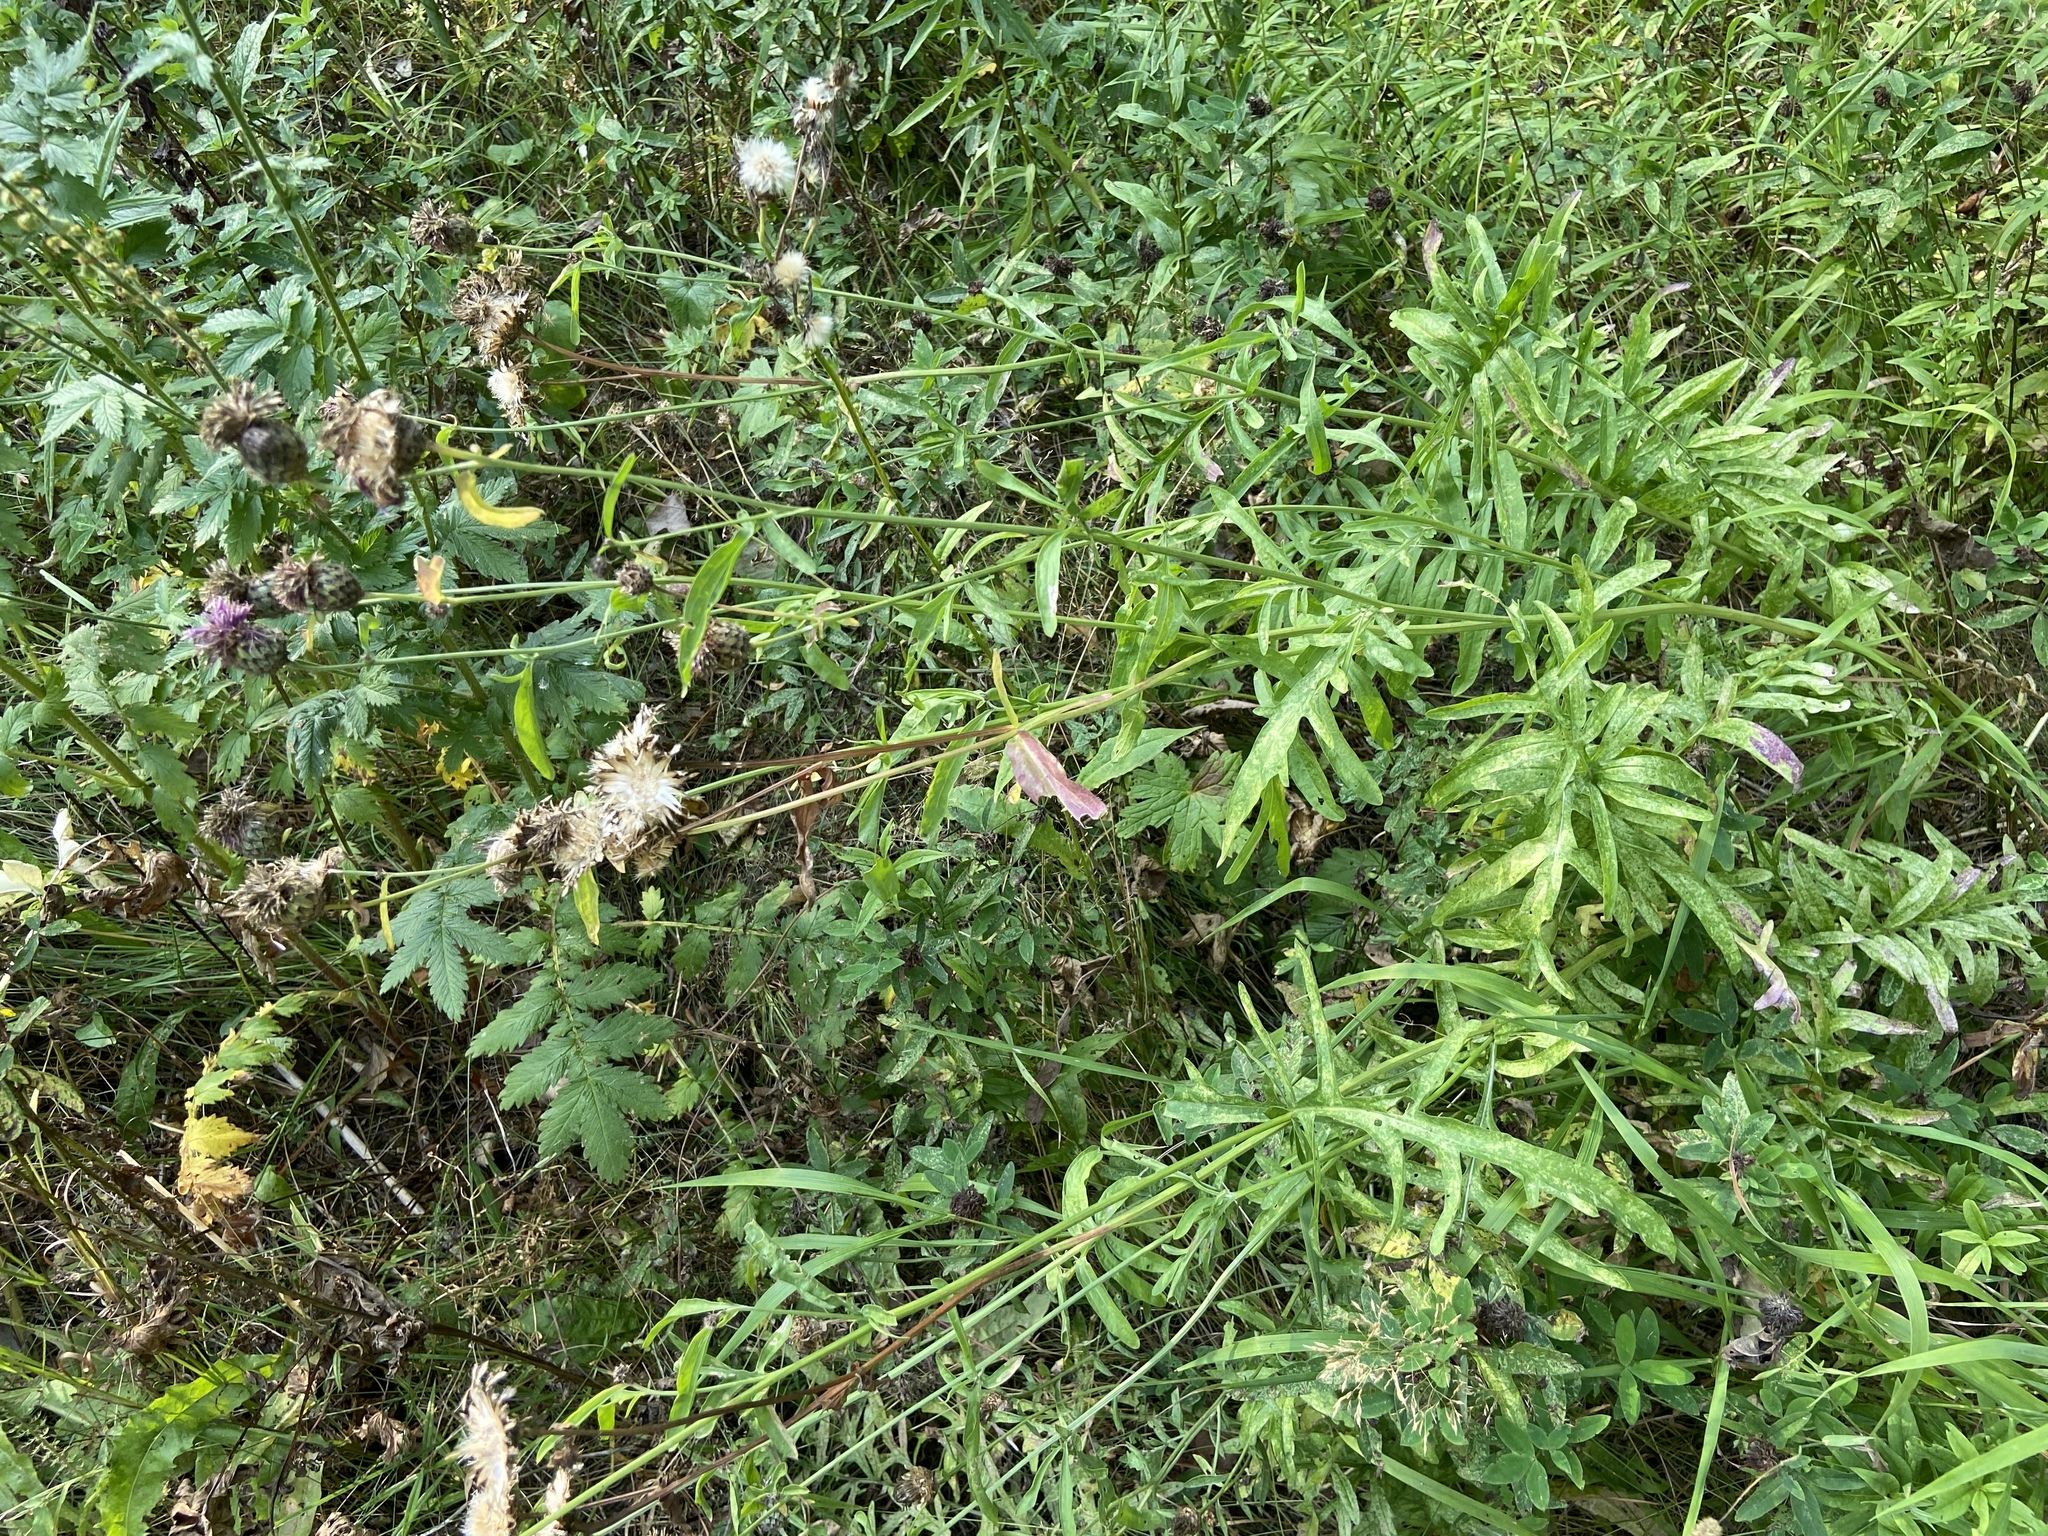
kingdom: Plantae
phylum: Tracheophyta
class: Magnoliopsida
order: Asterales
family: Asteraceae
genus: Centaurea
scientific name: Centaurea scabiosa
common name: Greater knapweed
